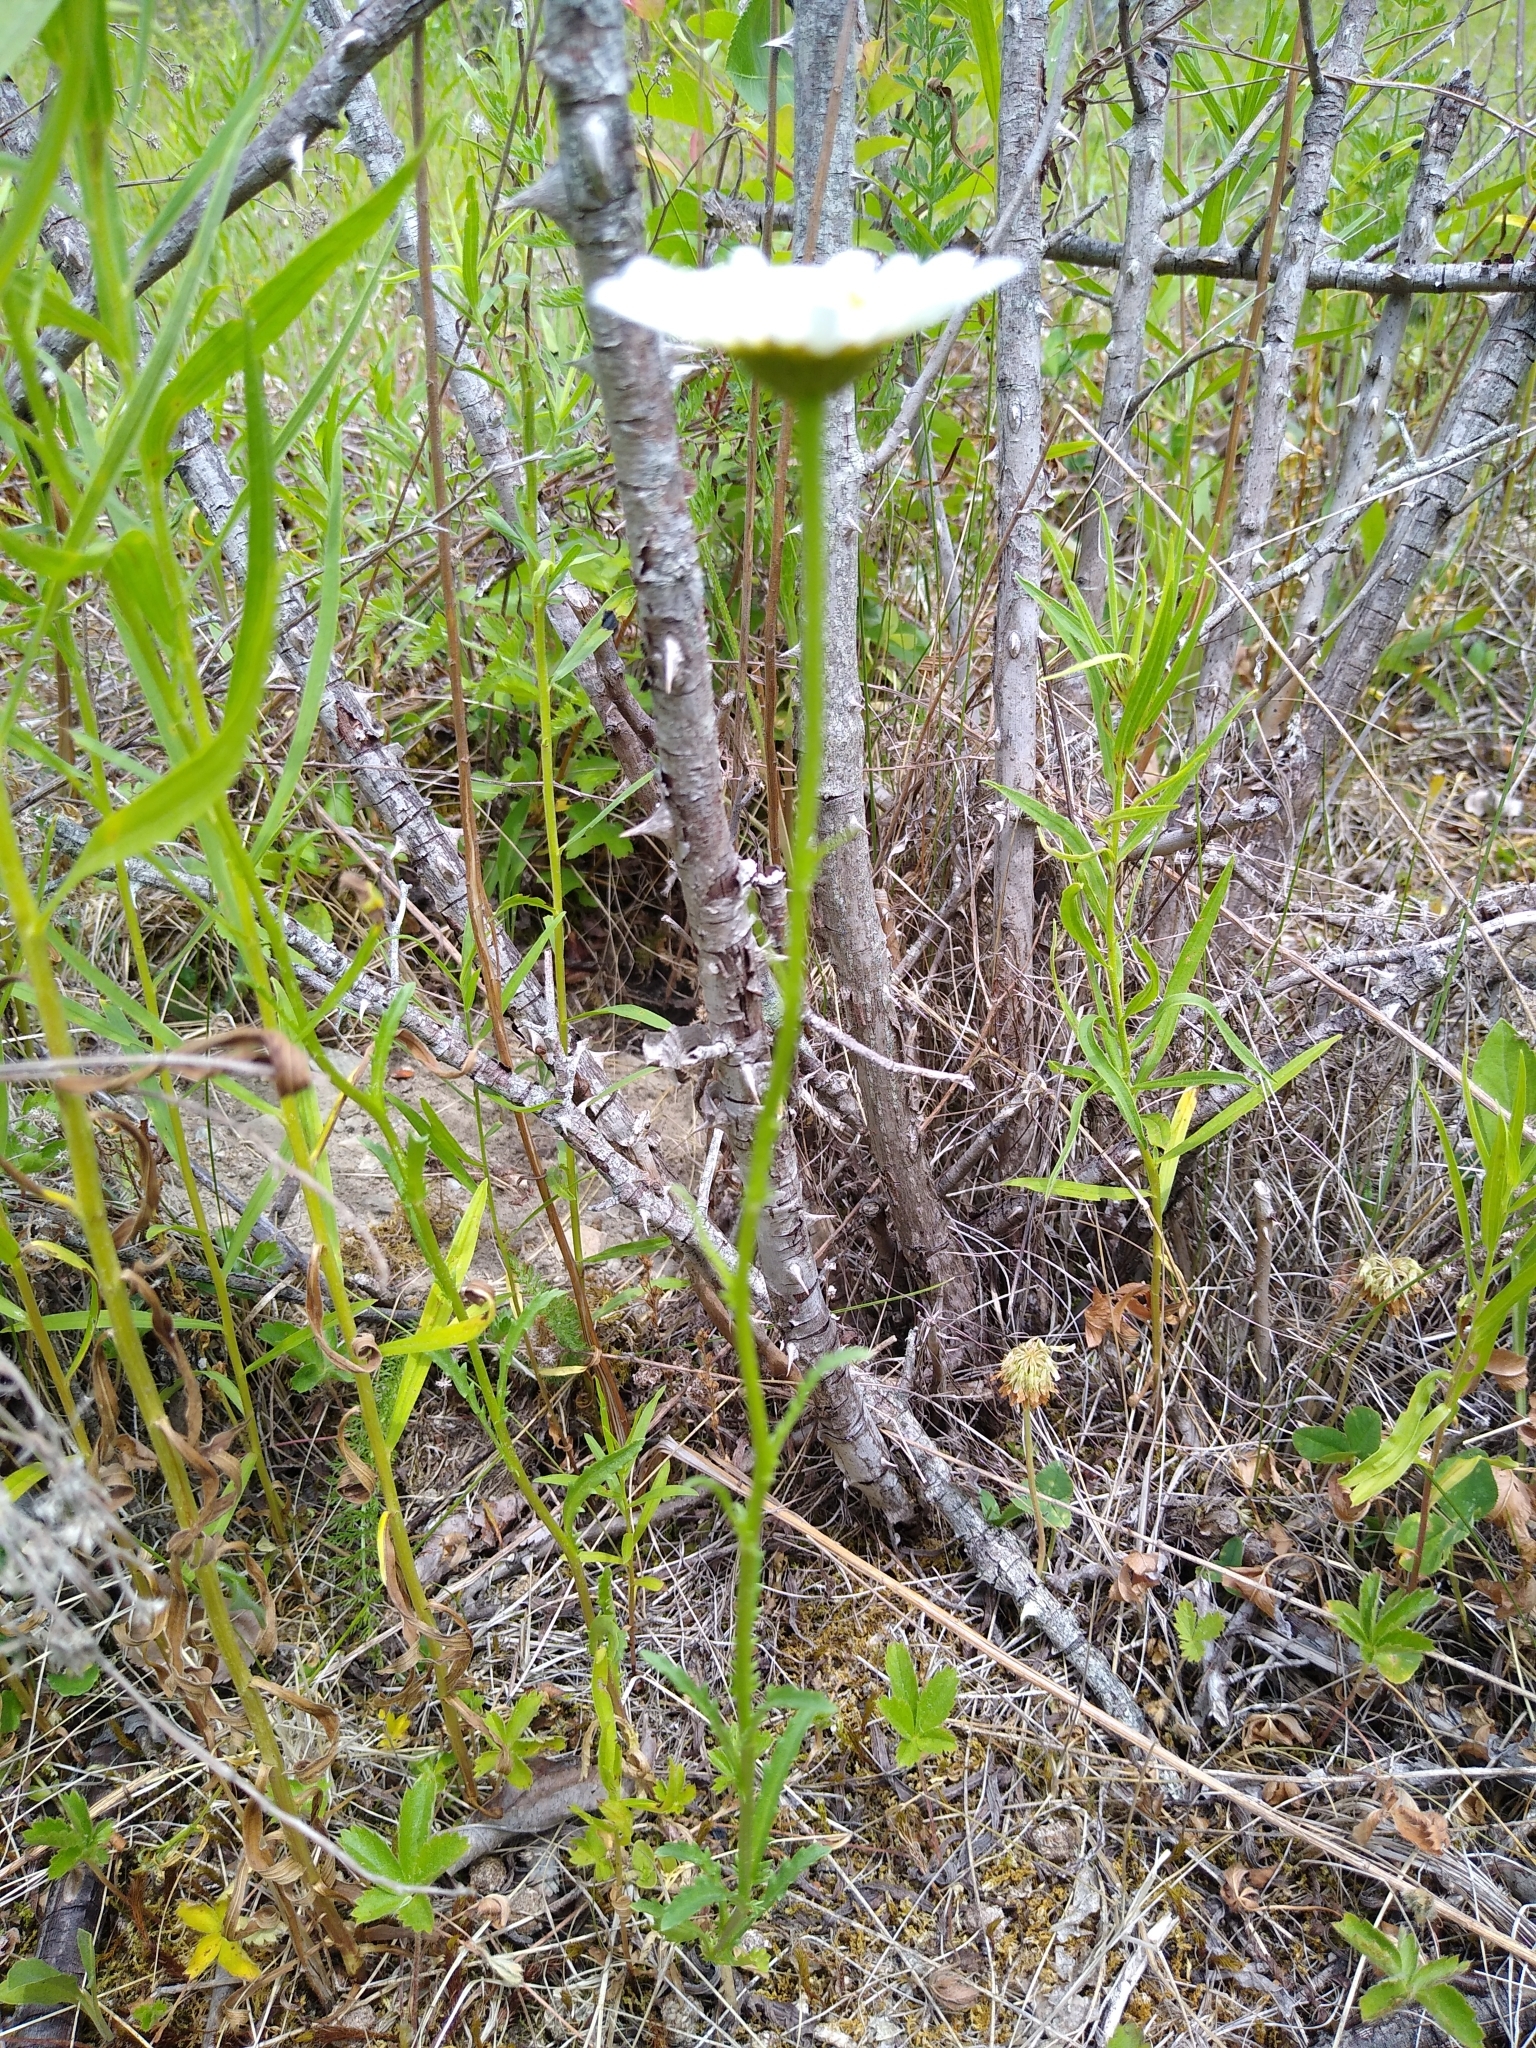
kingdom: Plantae
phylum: Tracheophyta
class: Magnoliopsida
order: Asterales
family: Asteraceae
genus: Leucanthemum
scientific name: Leucanthemum vulgare
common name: Oxeye daisy
